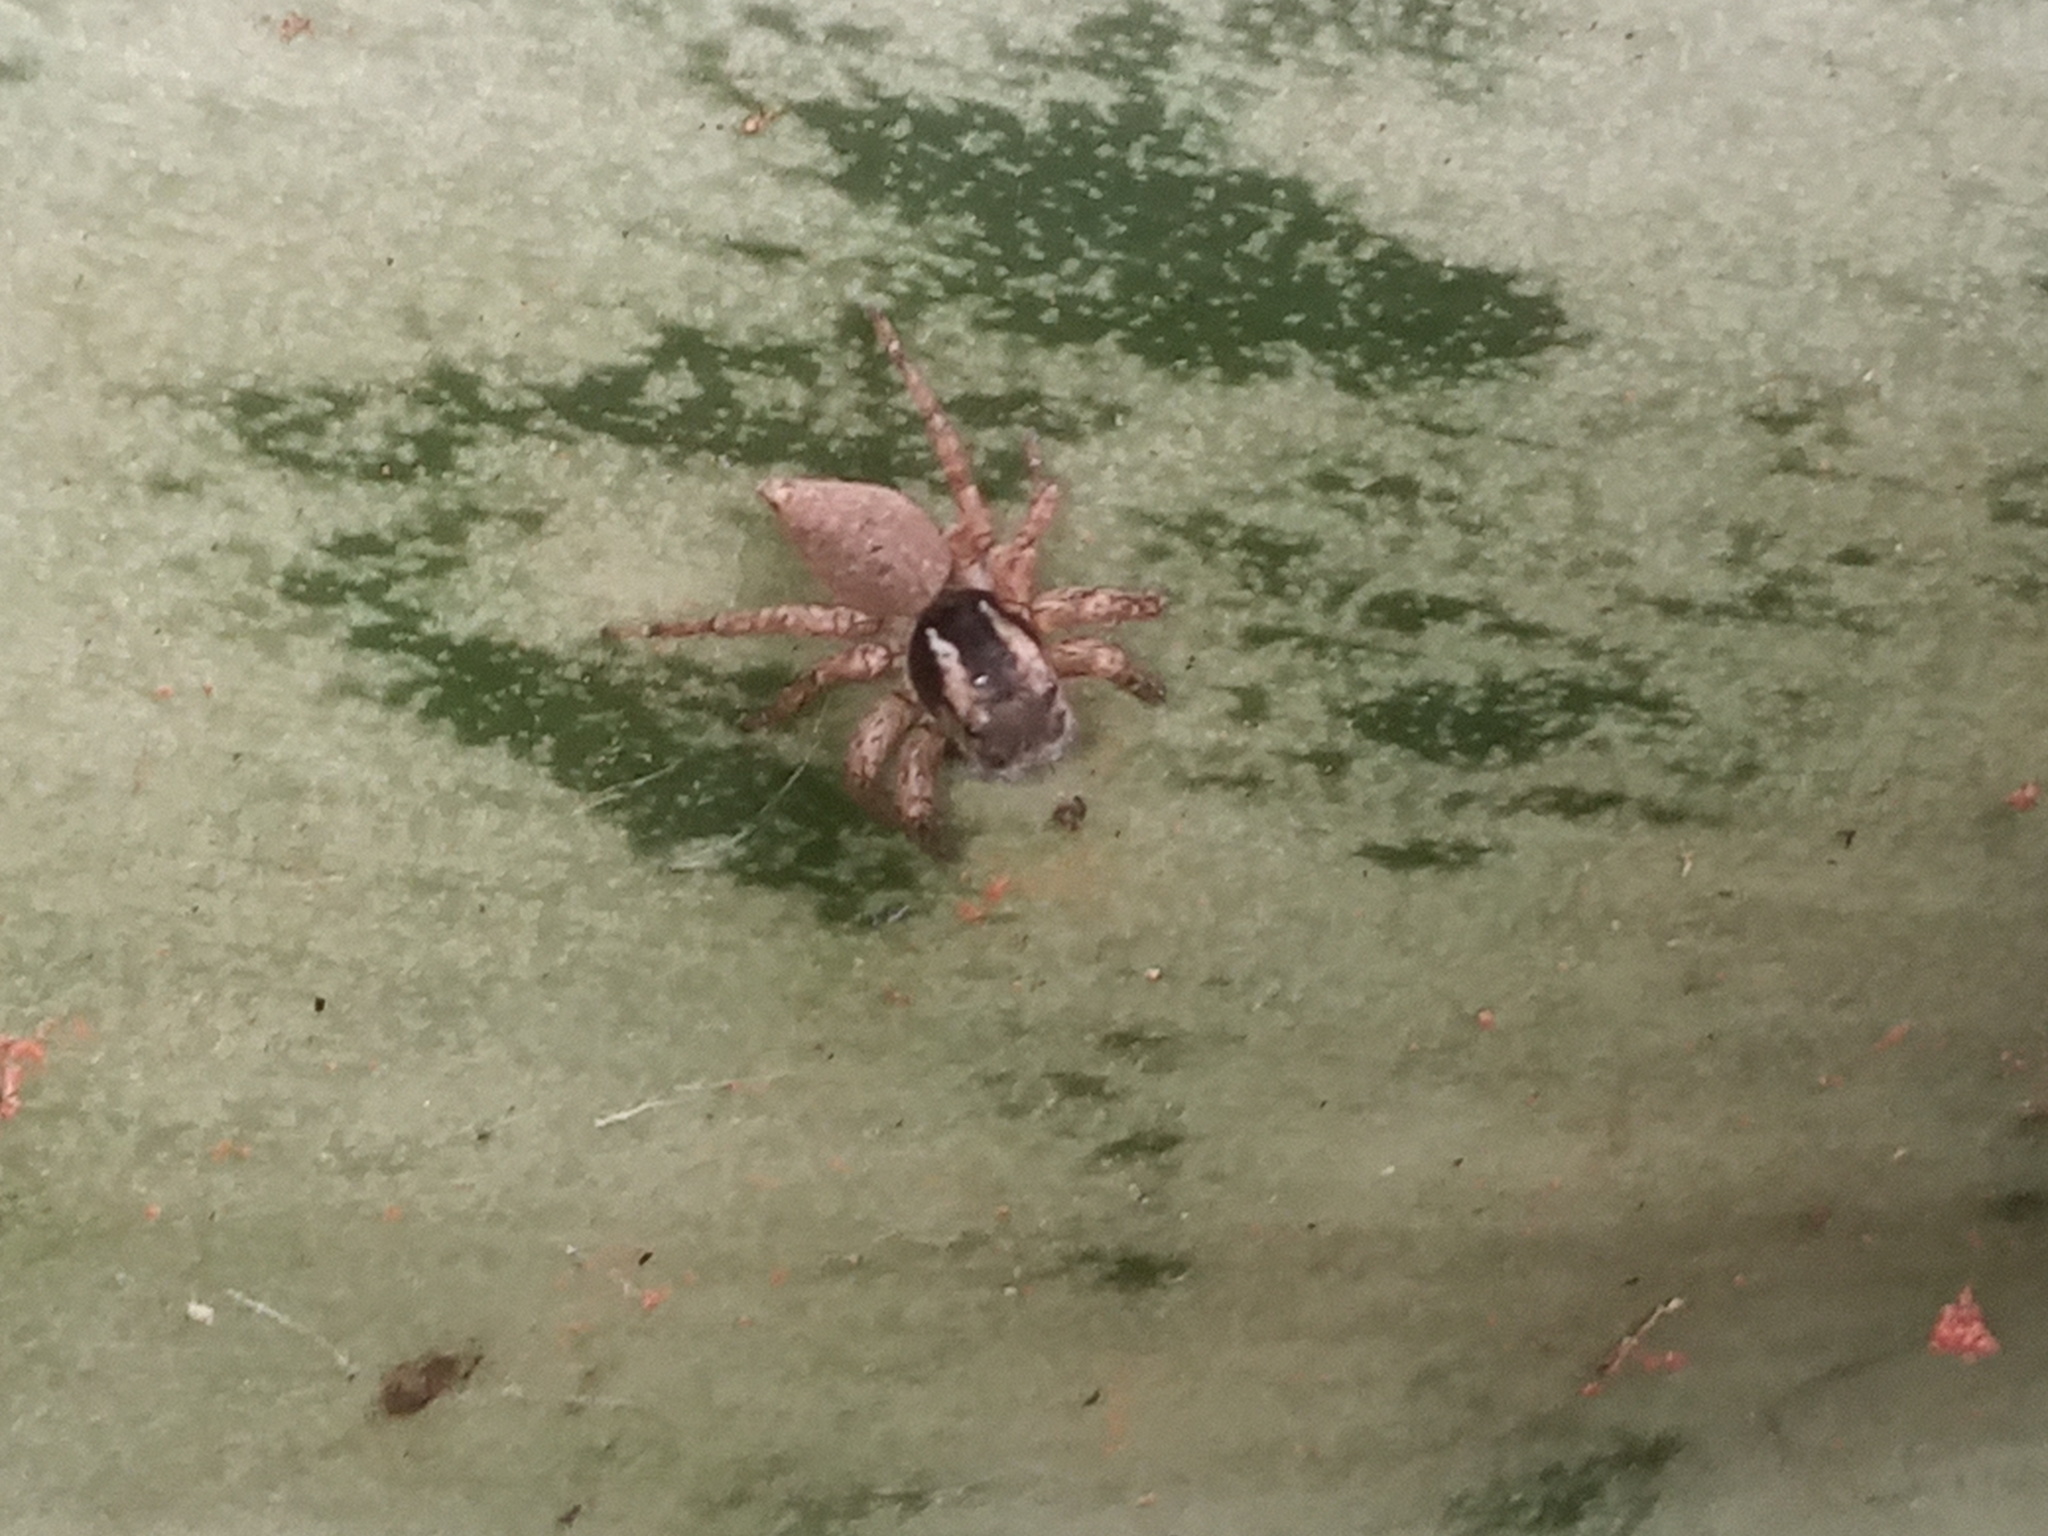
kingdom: Animalia
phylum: Arthropoda
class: Arachnida
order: Araneae
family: Salticidae
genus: Sumampattus
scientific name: Sumampattus quinqueradiatus
